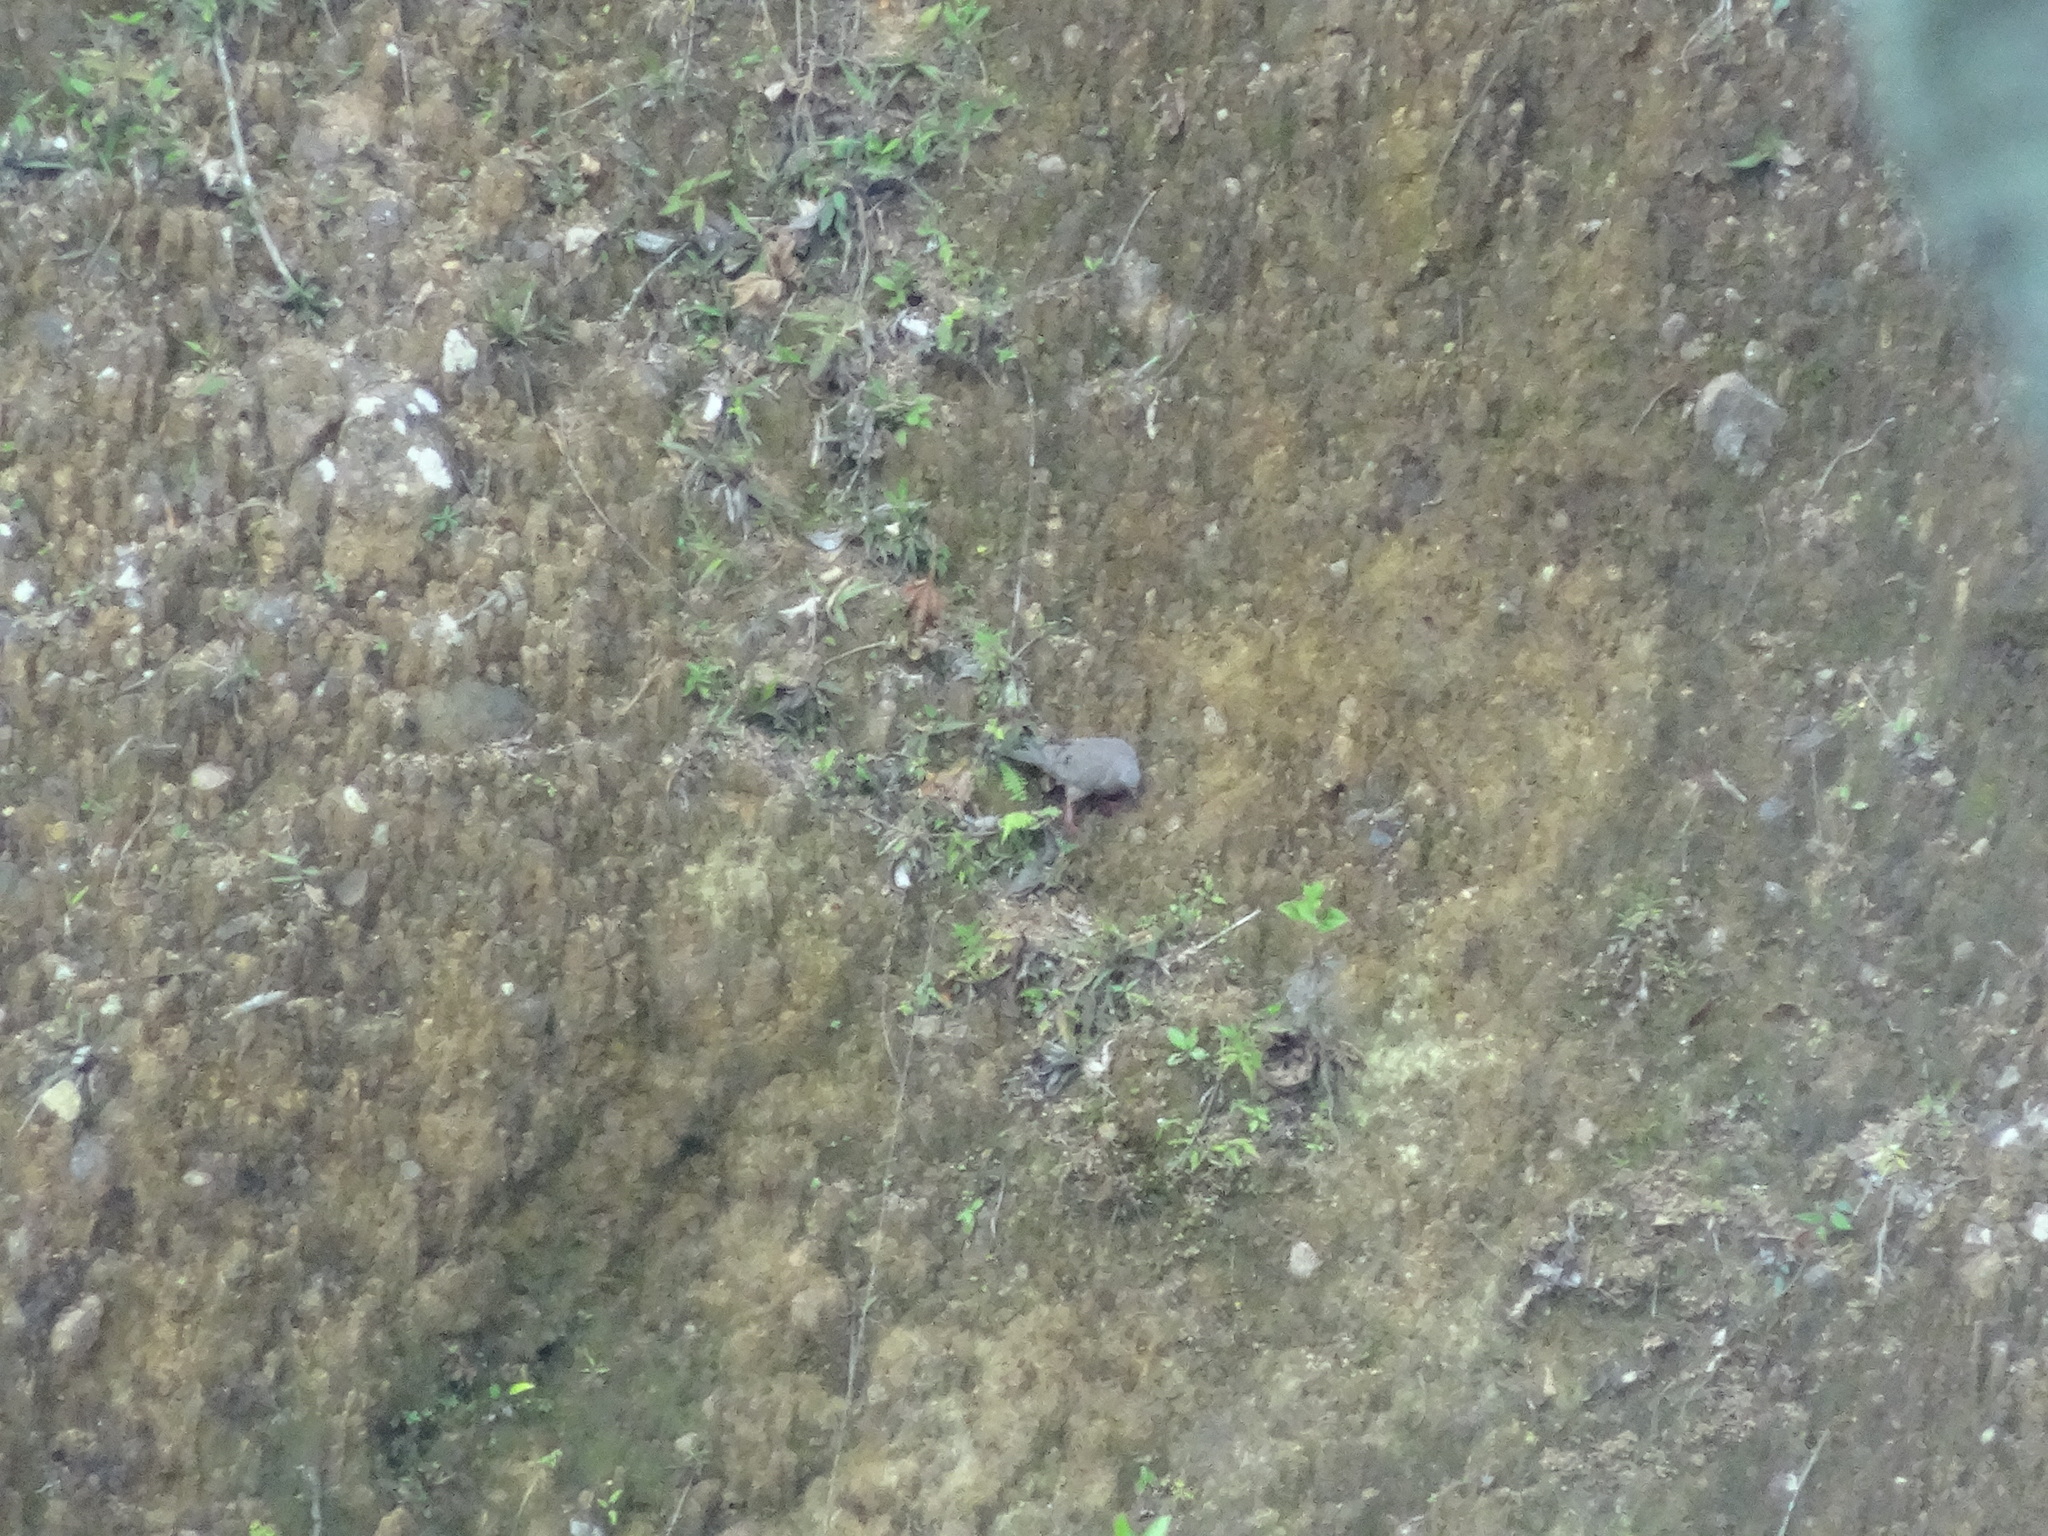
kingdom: Animalia
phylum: Chordata
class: Aves
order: Columbiformes
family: Columbidae
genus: Zenaida
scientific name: Zenaida auriculata
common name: Eared dove
